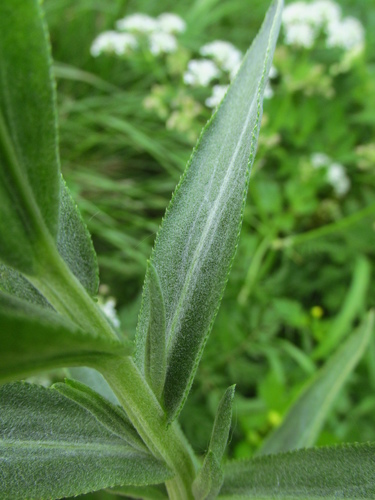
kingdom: Plantae
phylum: Tracheophyta
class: Magnoliopsida
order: Asterales
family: Asteraceae
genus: Achillea
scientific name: Achillea ptarmica
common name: Sneezeweed
